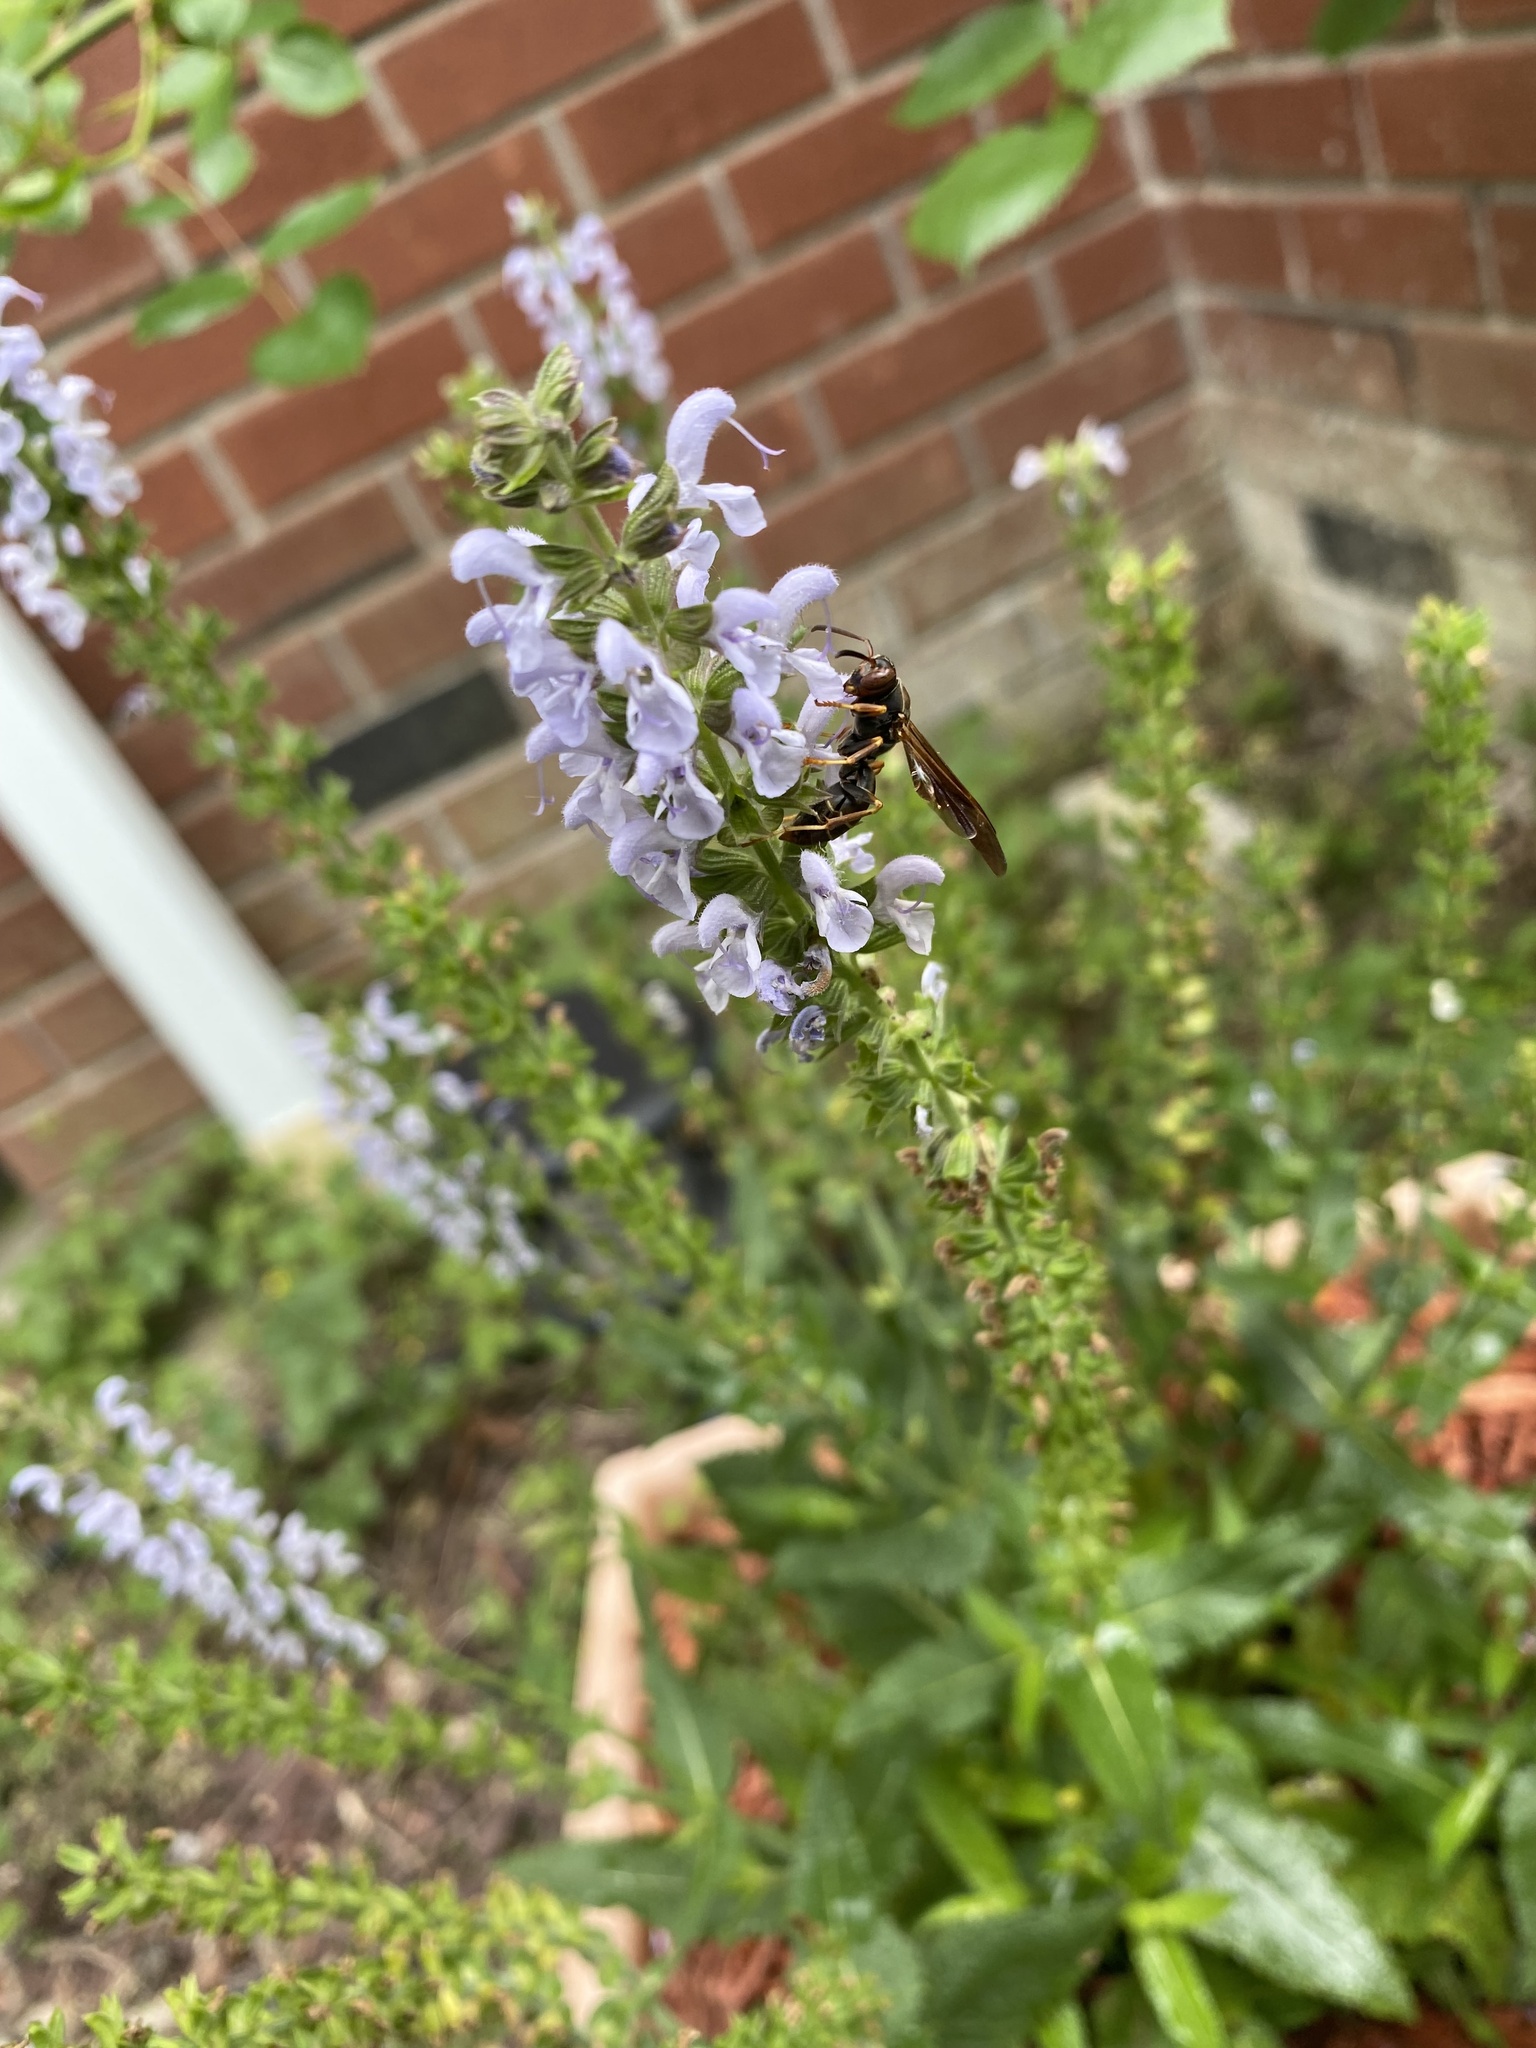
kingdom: Animalia
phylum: Arthropoda
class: Insecta
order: Hymenoptera
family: Eumenidae
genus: Polistes
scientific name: Polistes fuscatus
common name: Dark paper wasp
